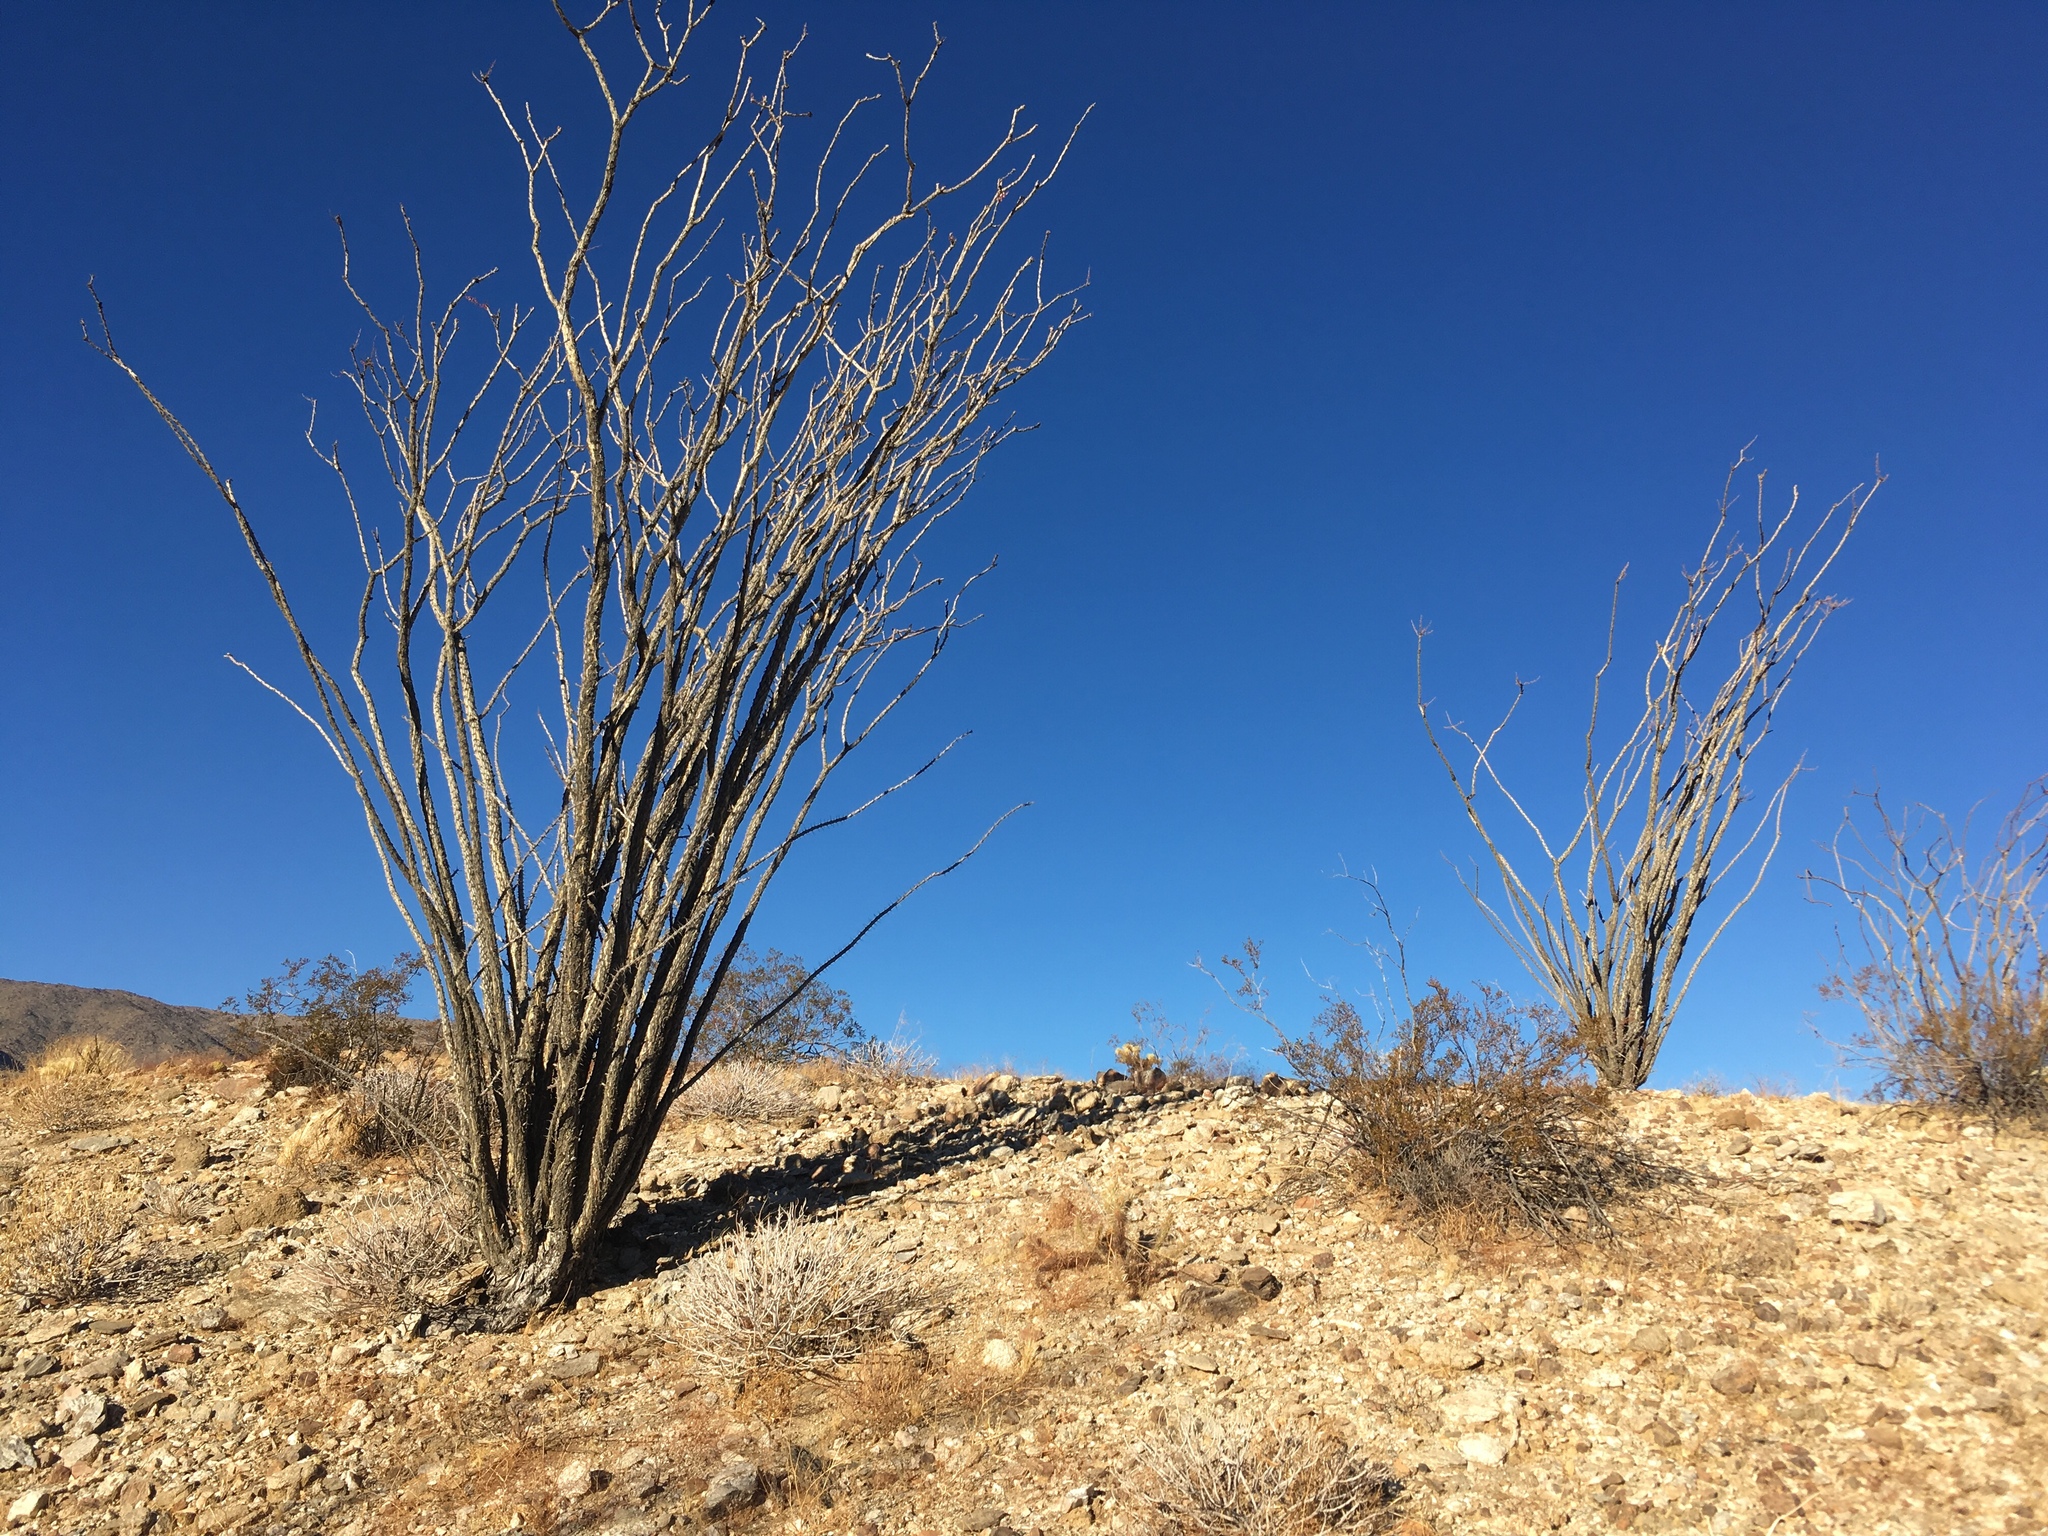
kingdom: Plantae
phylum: Tracheophyta
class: Magnoliopsida
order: Ericales
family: Fouquieriaceae
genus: Fouquieria
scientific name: Fouquieria splendens
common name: Vine-cactus
